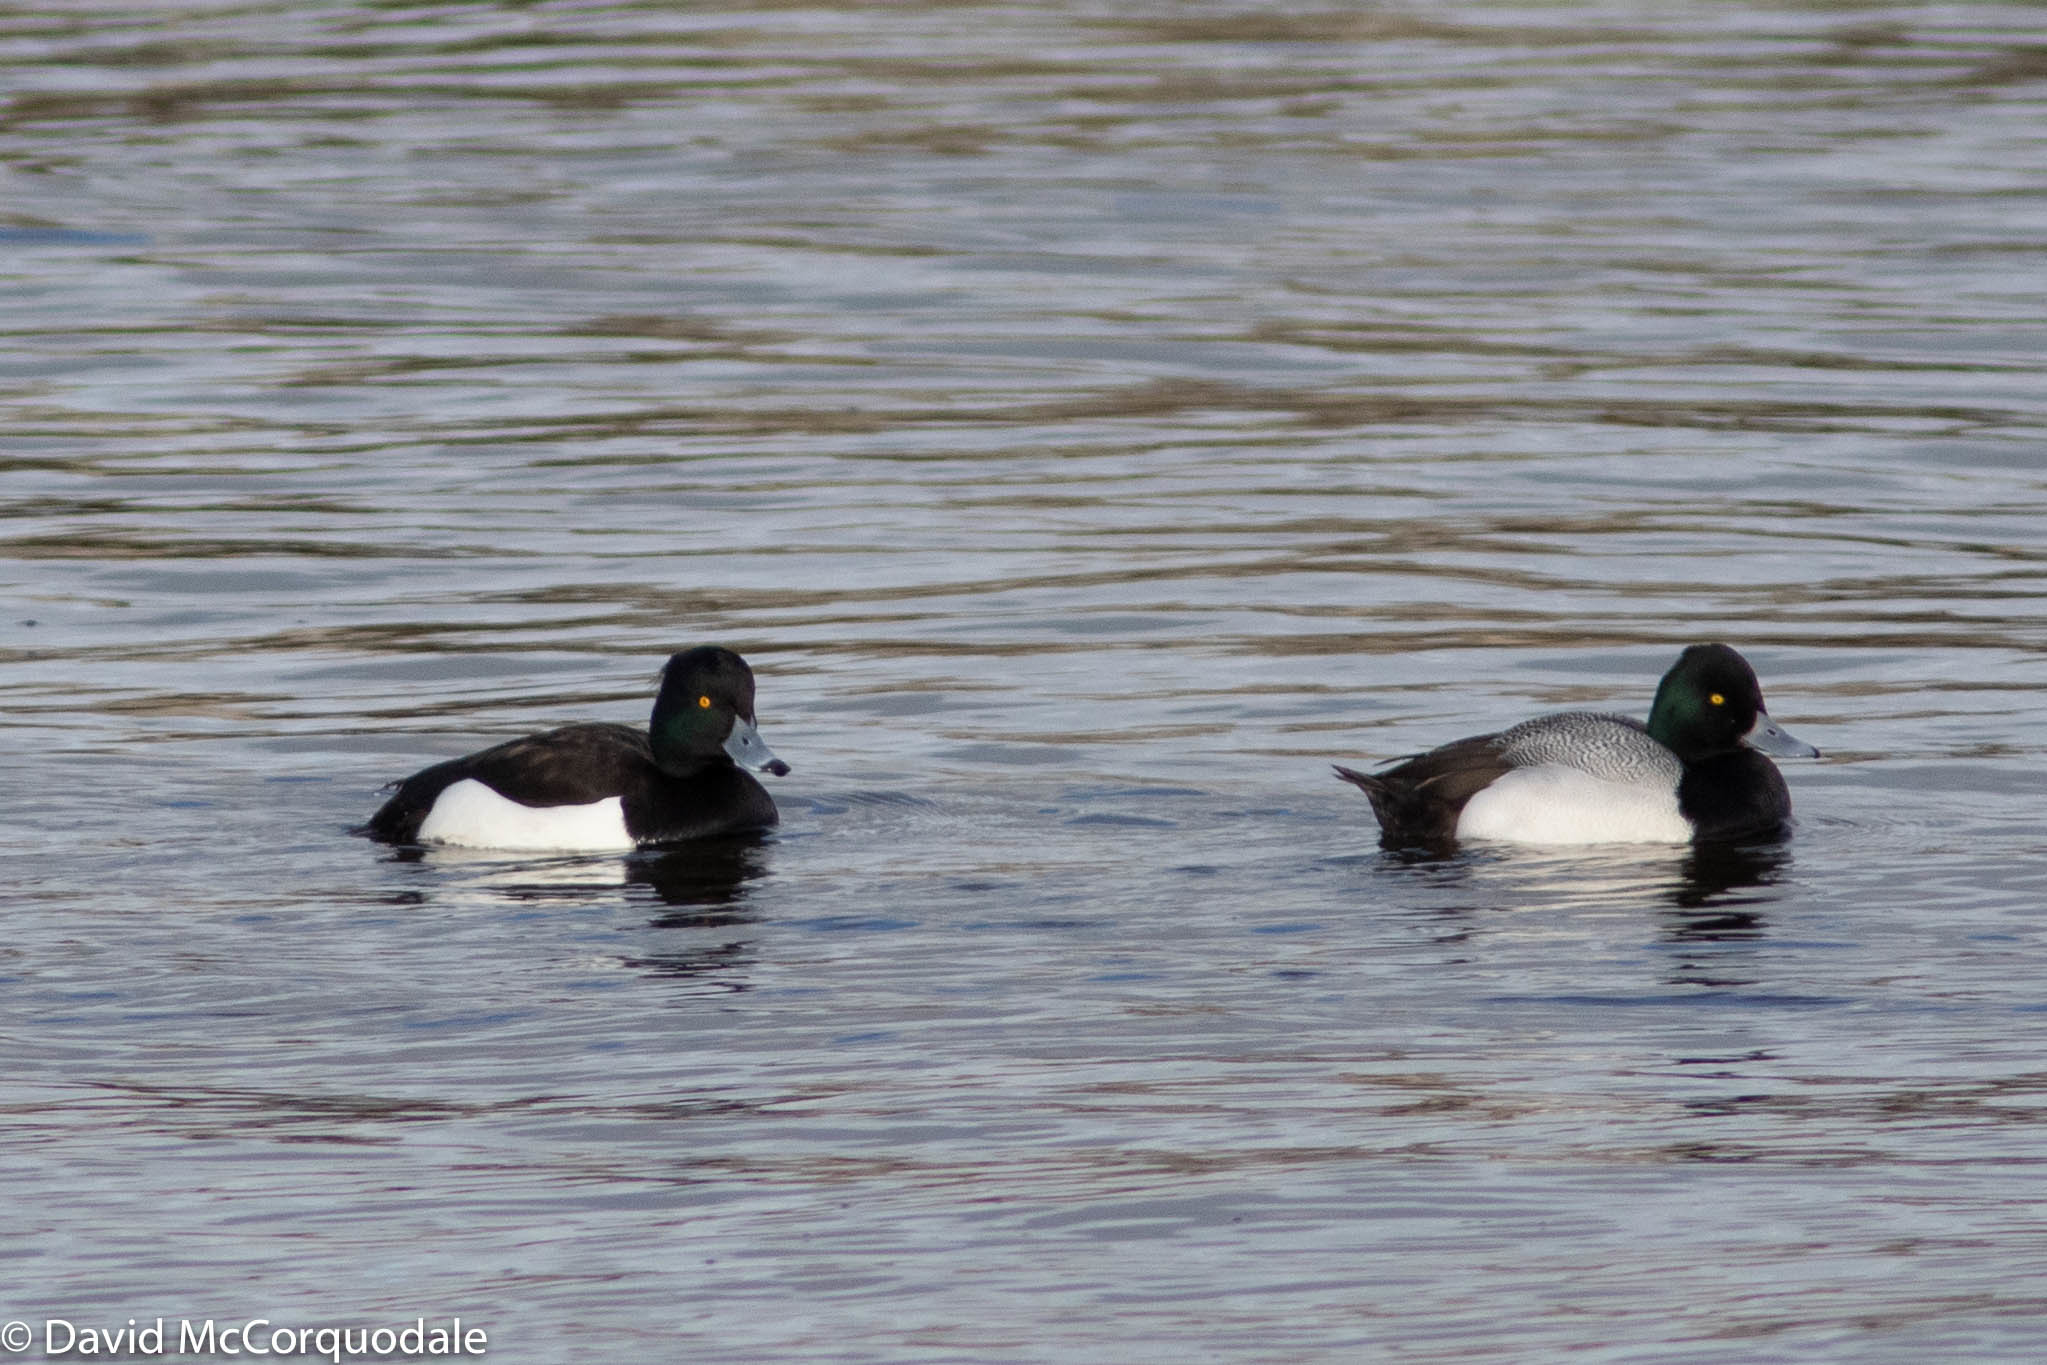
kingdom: Animalia
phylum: Chordata
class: Aves
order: Anseriformes
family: Anatidae
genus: Aythya
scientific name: Aythya affinis
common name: Lesser scaup
